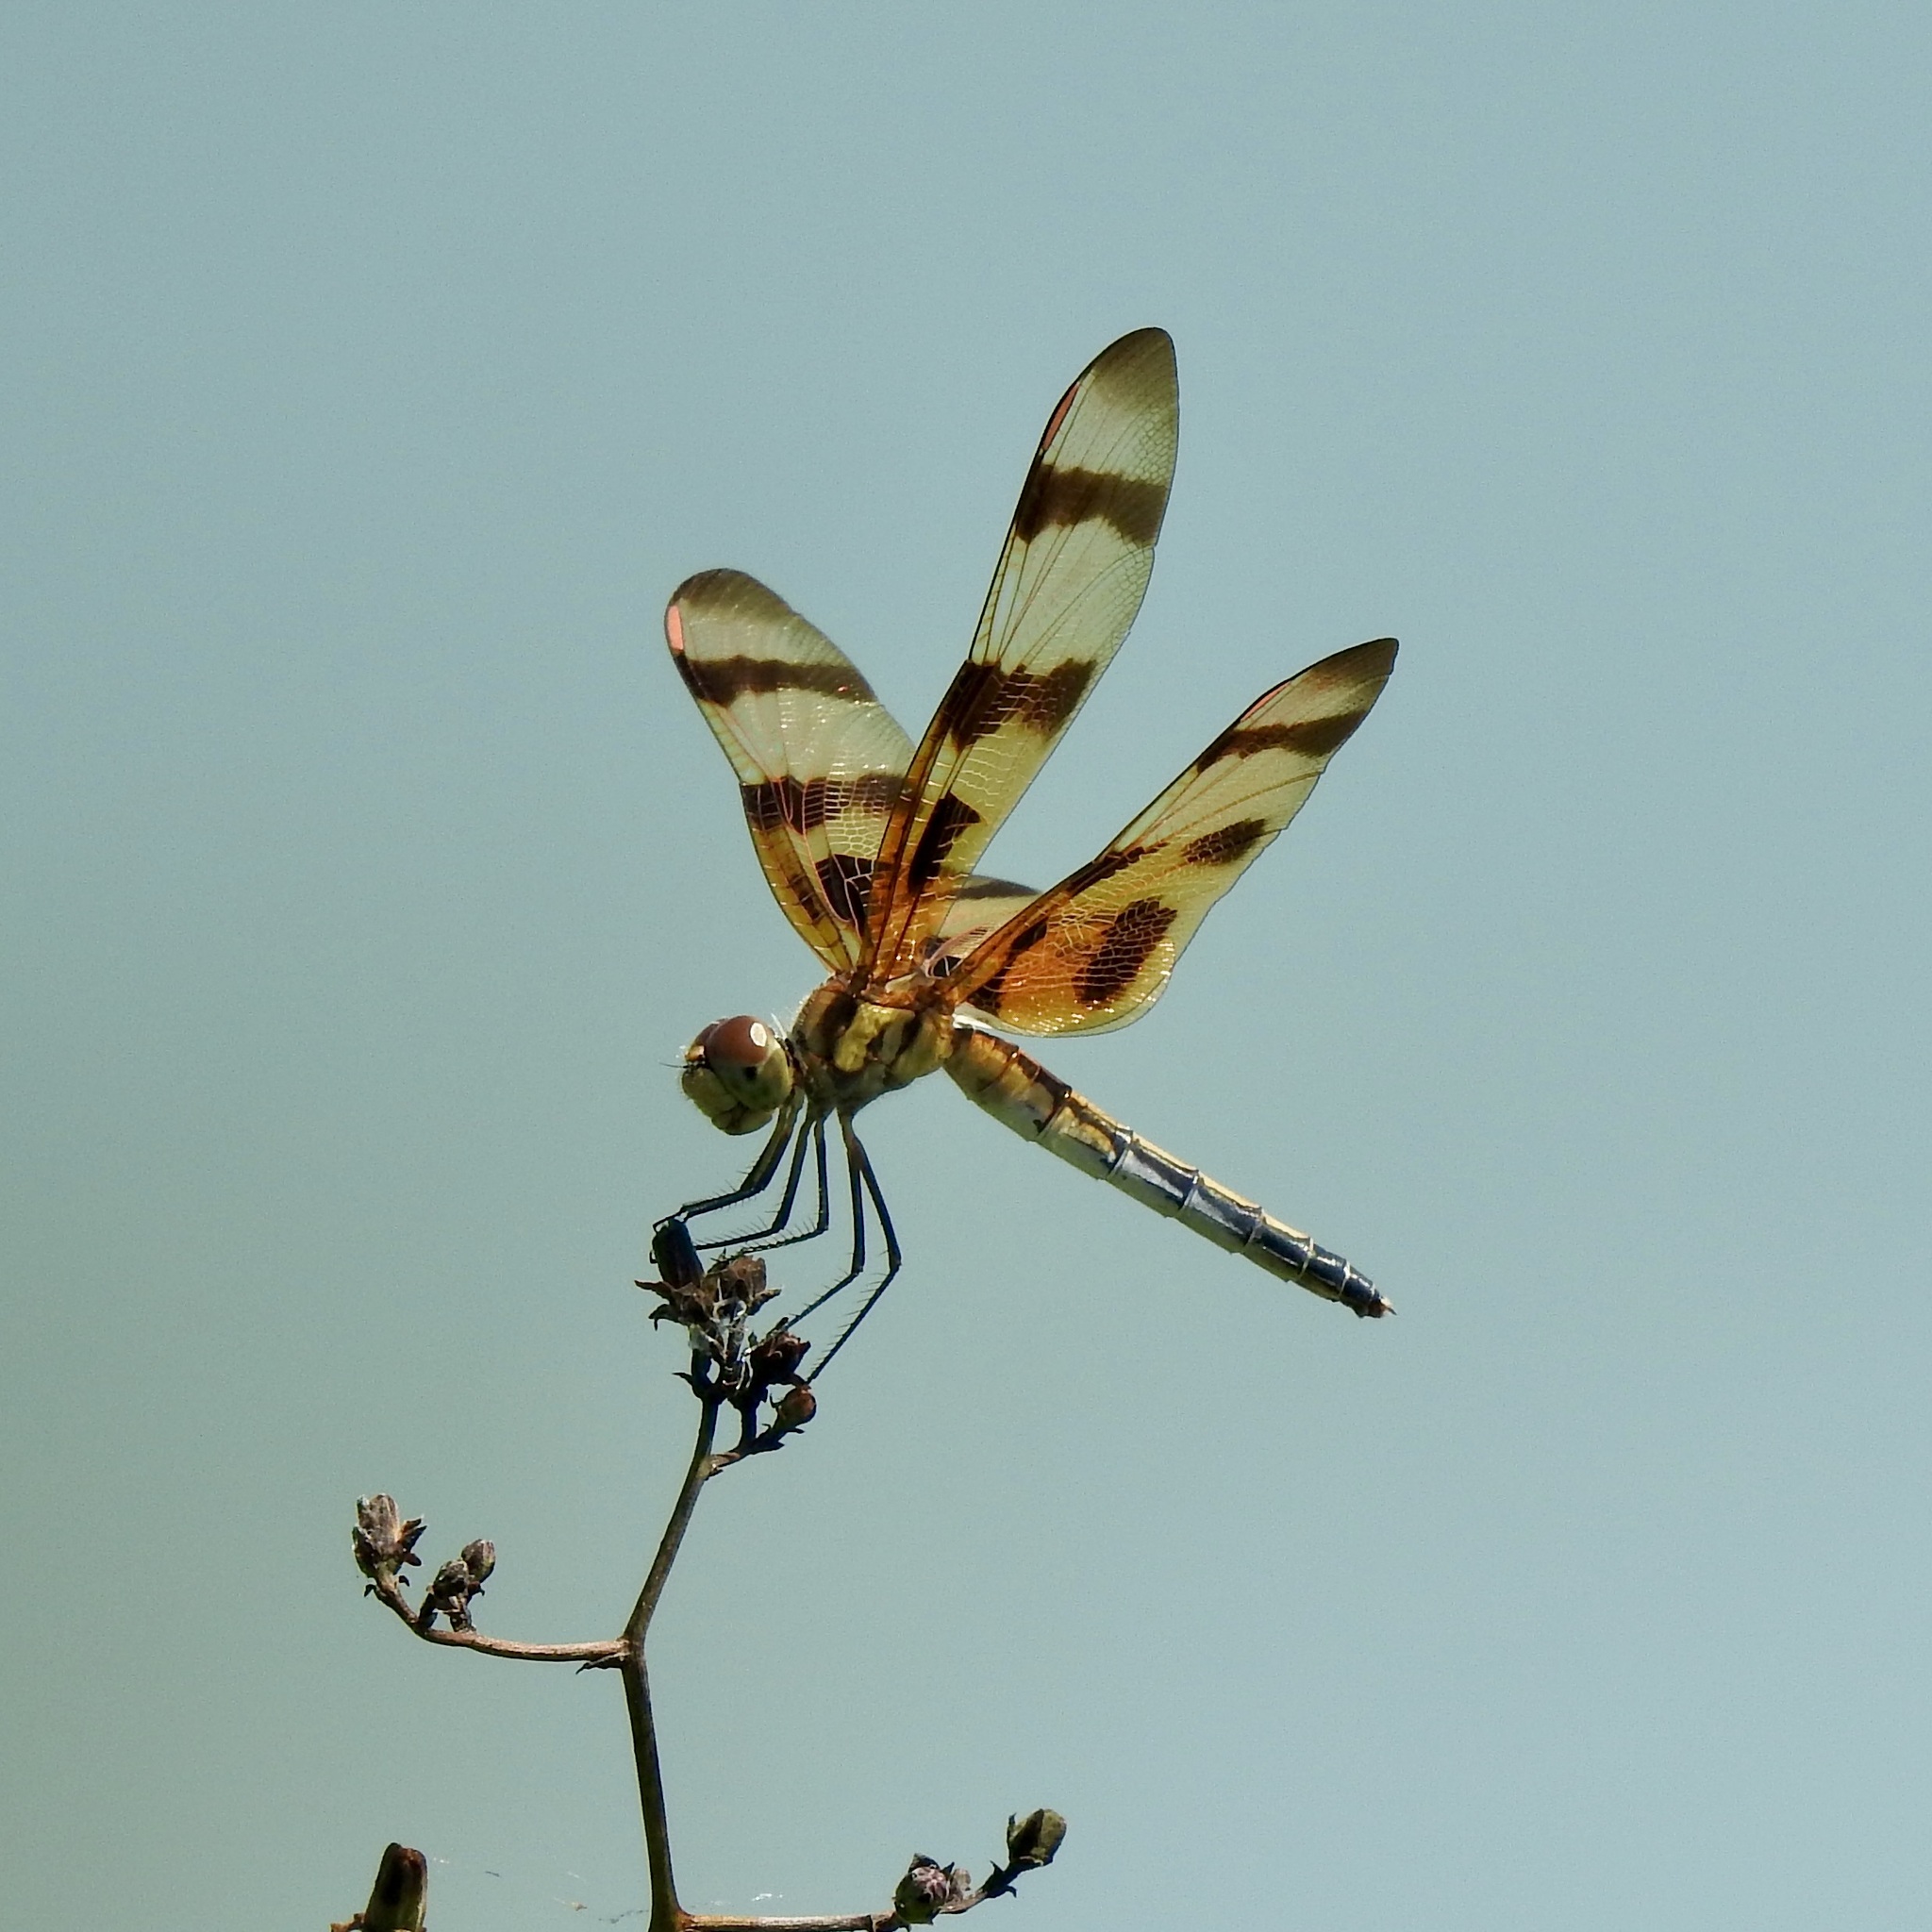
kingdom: Animalia
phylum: Arthropoda
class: Insecta
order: Odonata
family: Libellulidae
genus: Celithemis
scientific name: Celithemis eponina
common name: Halloween pennant
